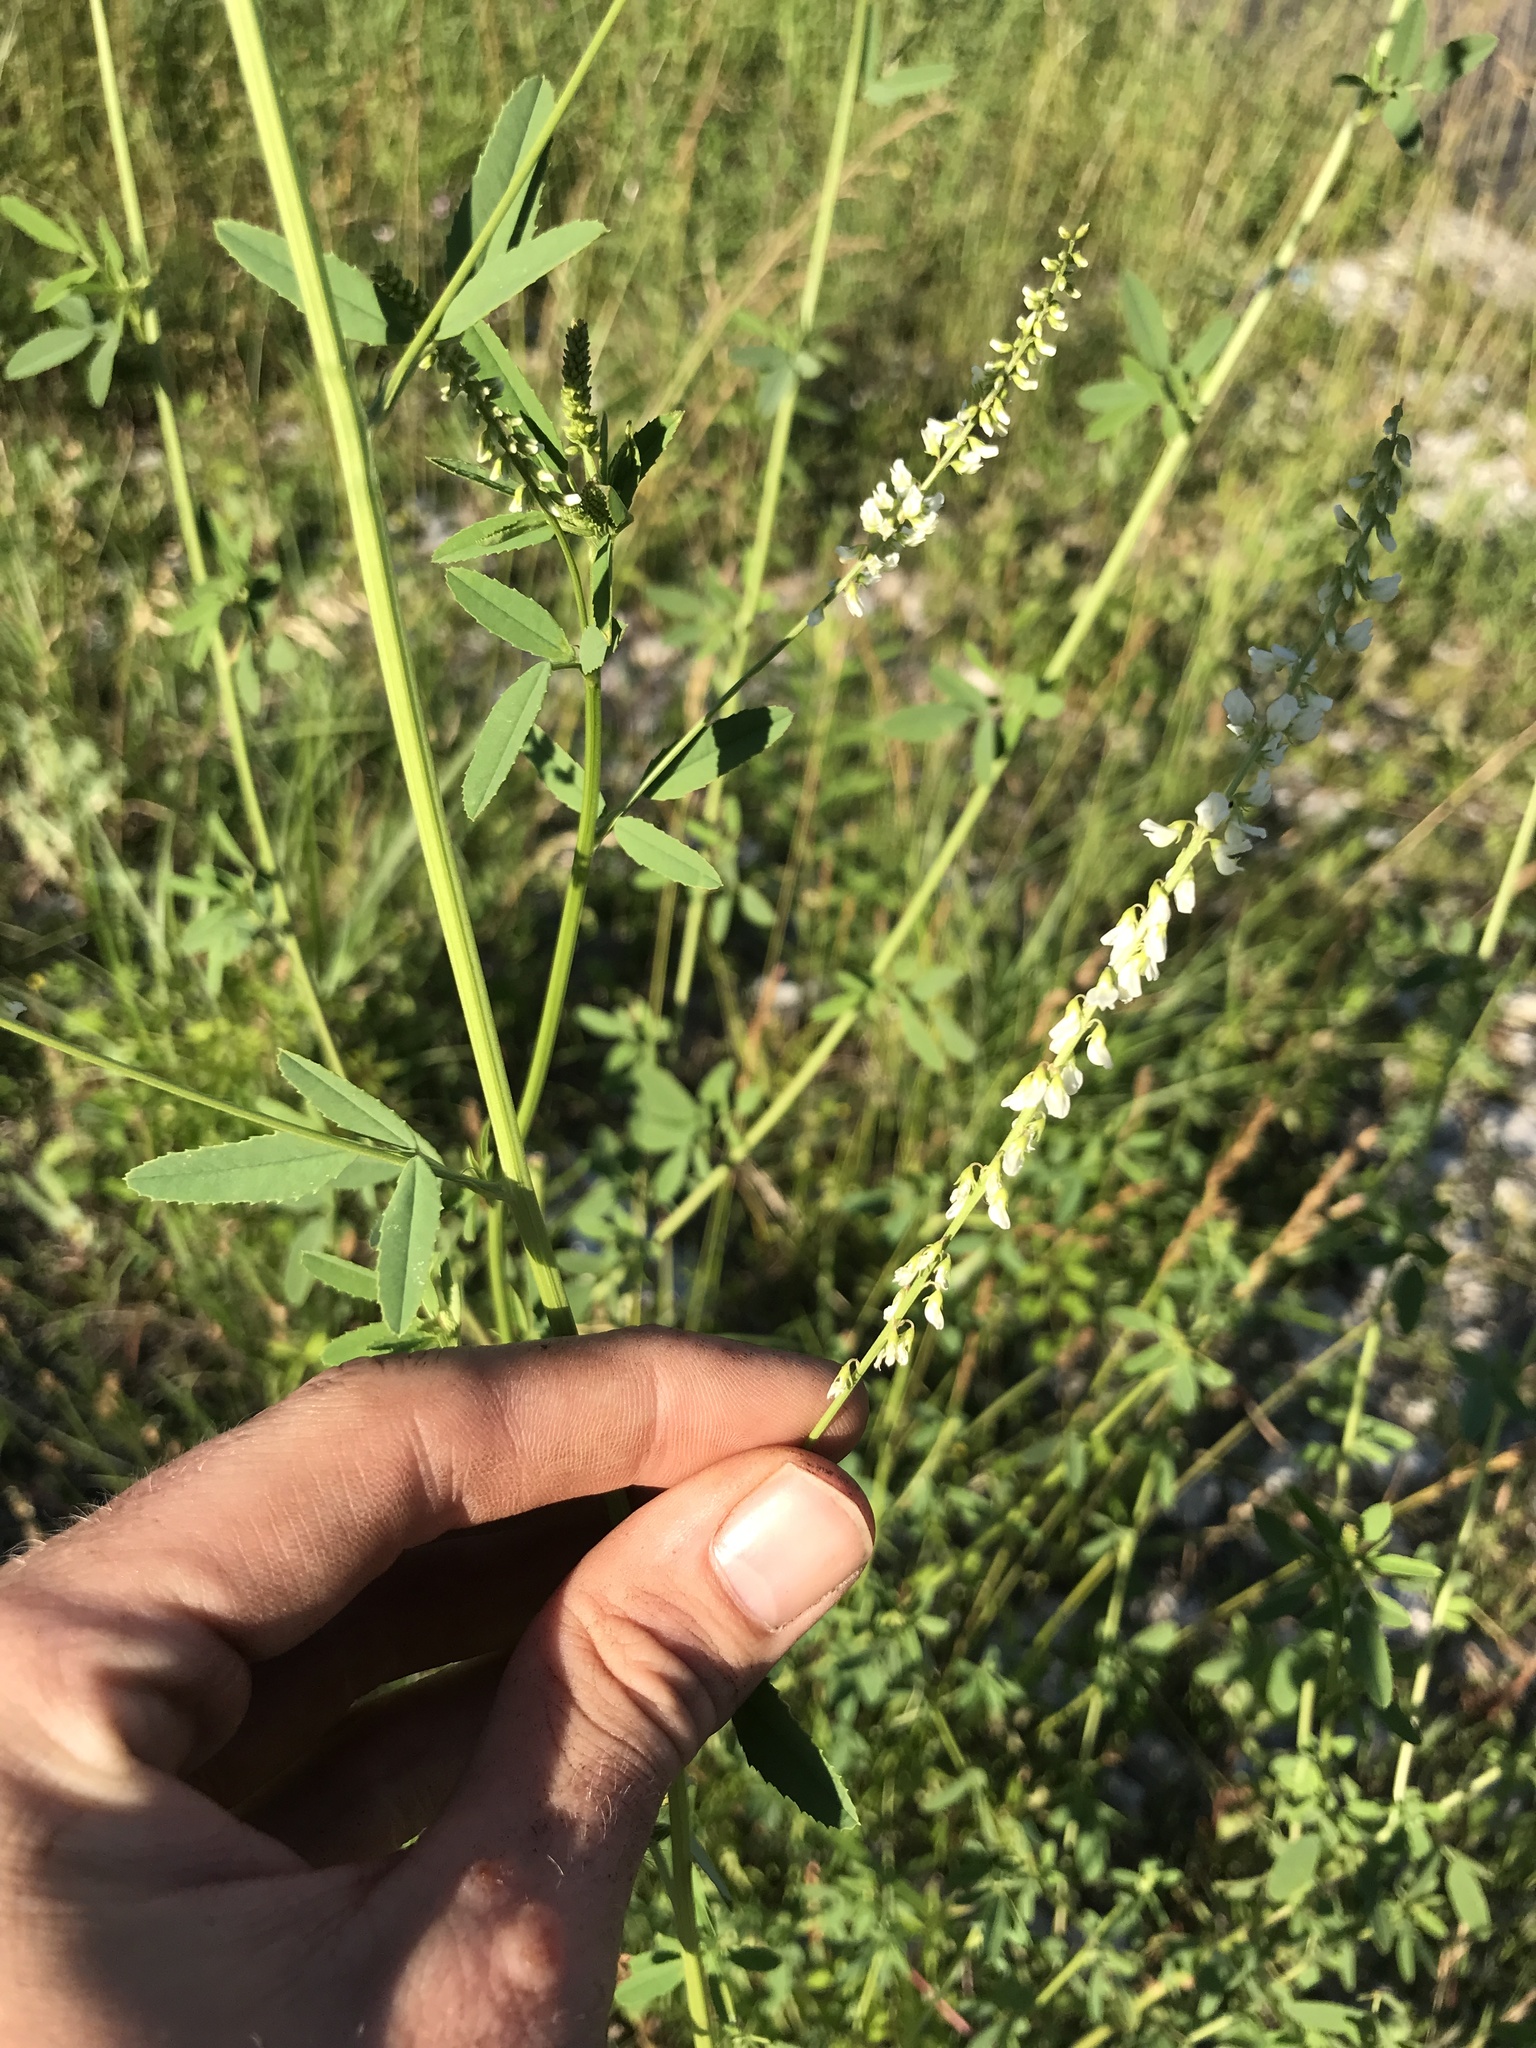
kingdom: Plantae
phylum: Tracheophyta
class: Magnoliopsida
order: Fabales
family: Fabaceae
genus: Melilotus
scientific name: Melilotus albus
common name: White melilot
